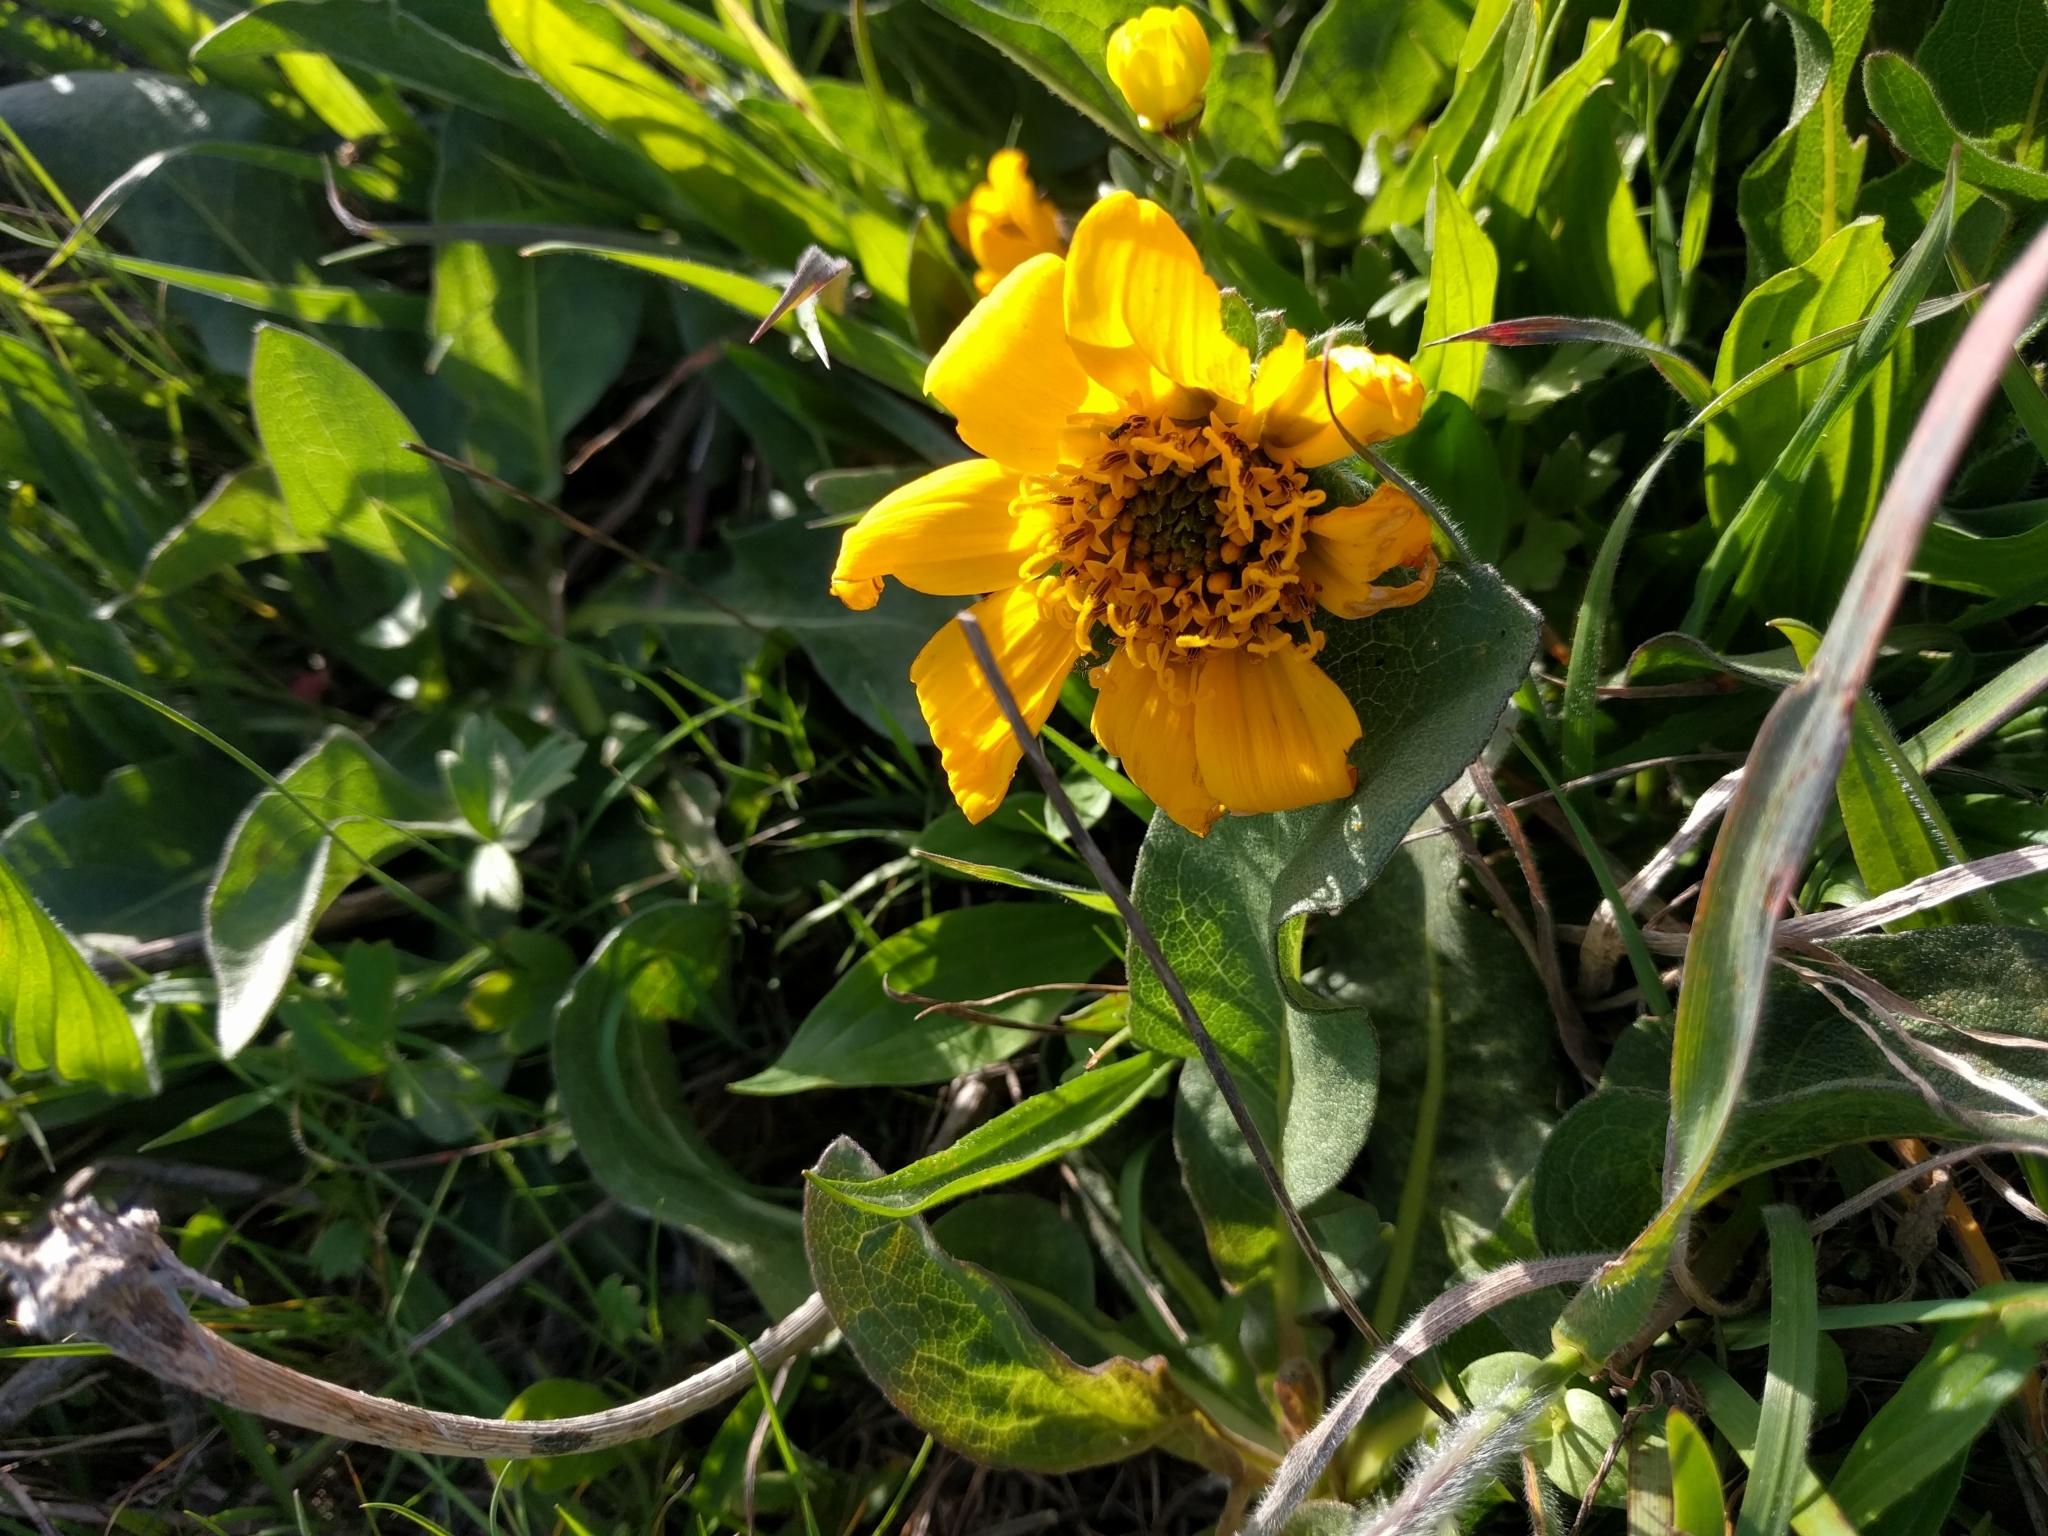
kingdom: Plantae
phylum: Tracheophyta
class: Magnoliopsida
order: Asterales
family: Asteraceae
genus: Wyethia
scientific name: Wyethia angustifolia
